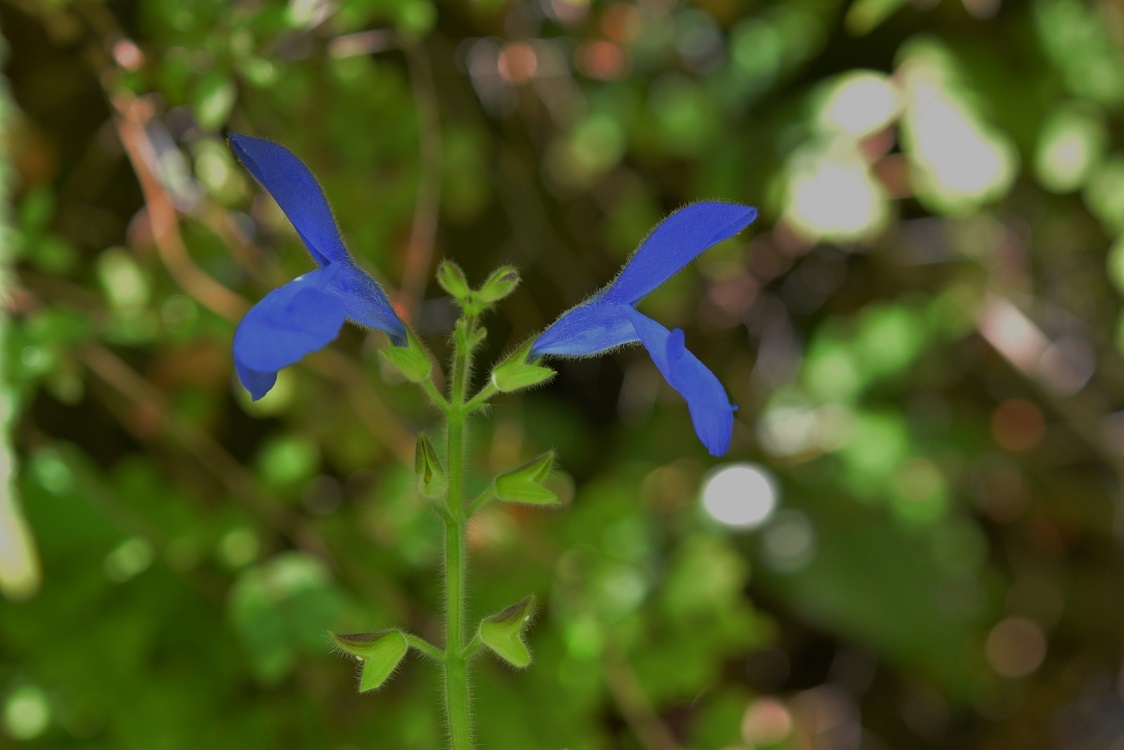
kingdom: Plantae
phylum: Tracheophyta
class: Magnoliopsida
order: Lamiales
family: Lamiaceae
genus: Salvia
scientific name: Salvia patens
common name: Blue sage
